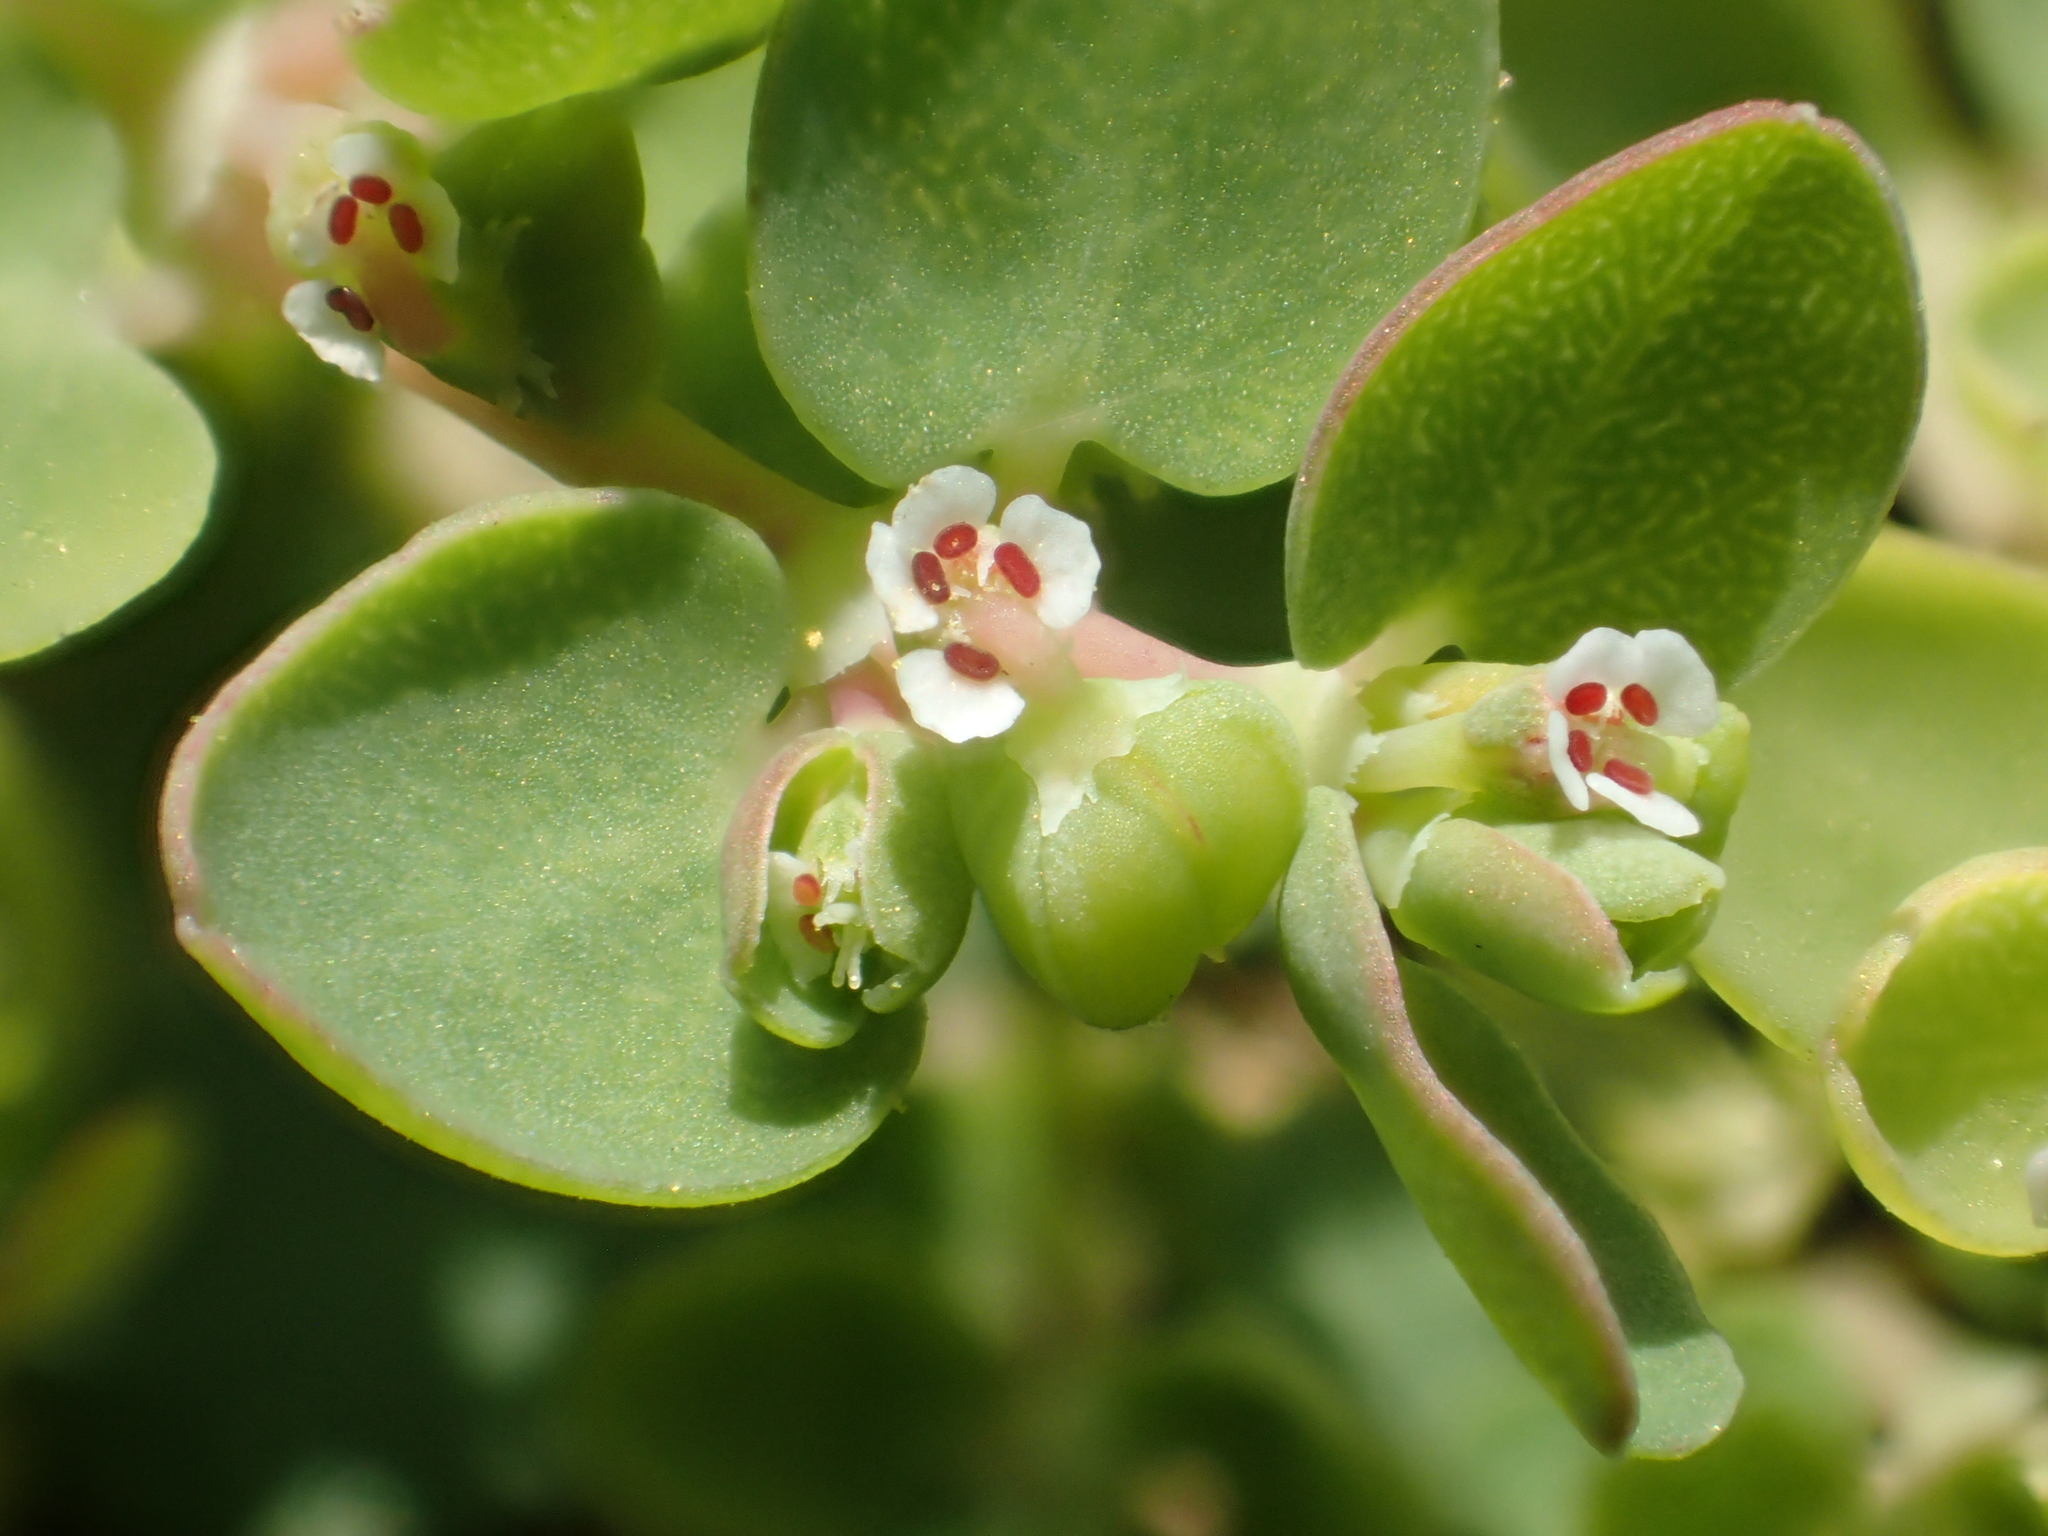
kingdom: Plantae
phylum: Tracheophyta
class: Magnoliopsida
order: Malpighiales
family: Euphorbiaceae
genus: Euphorbia
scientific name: Euphorbia serpens
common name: Matted sandmat
